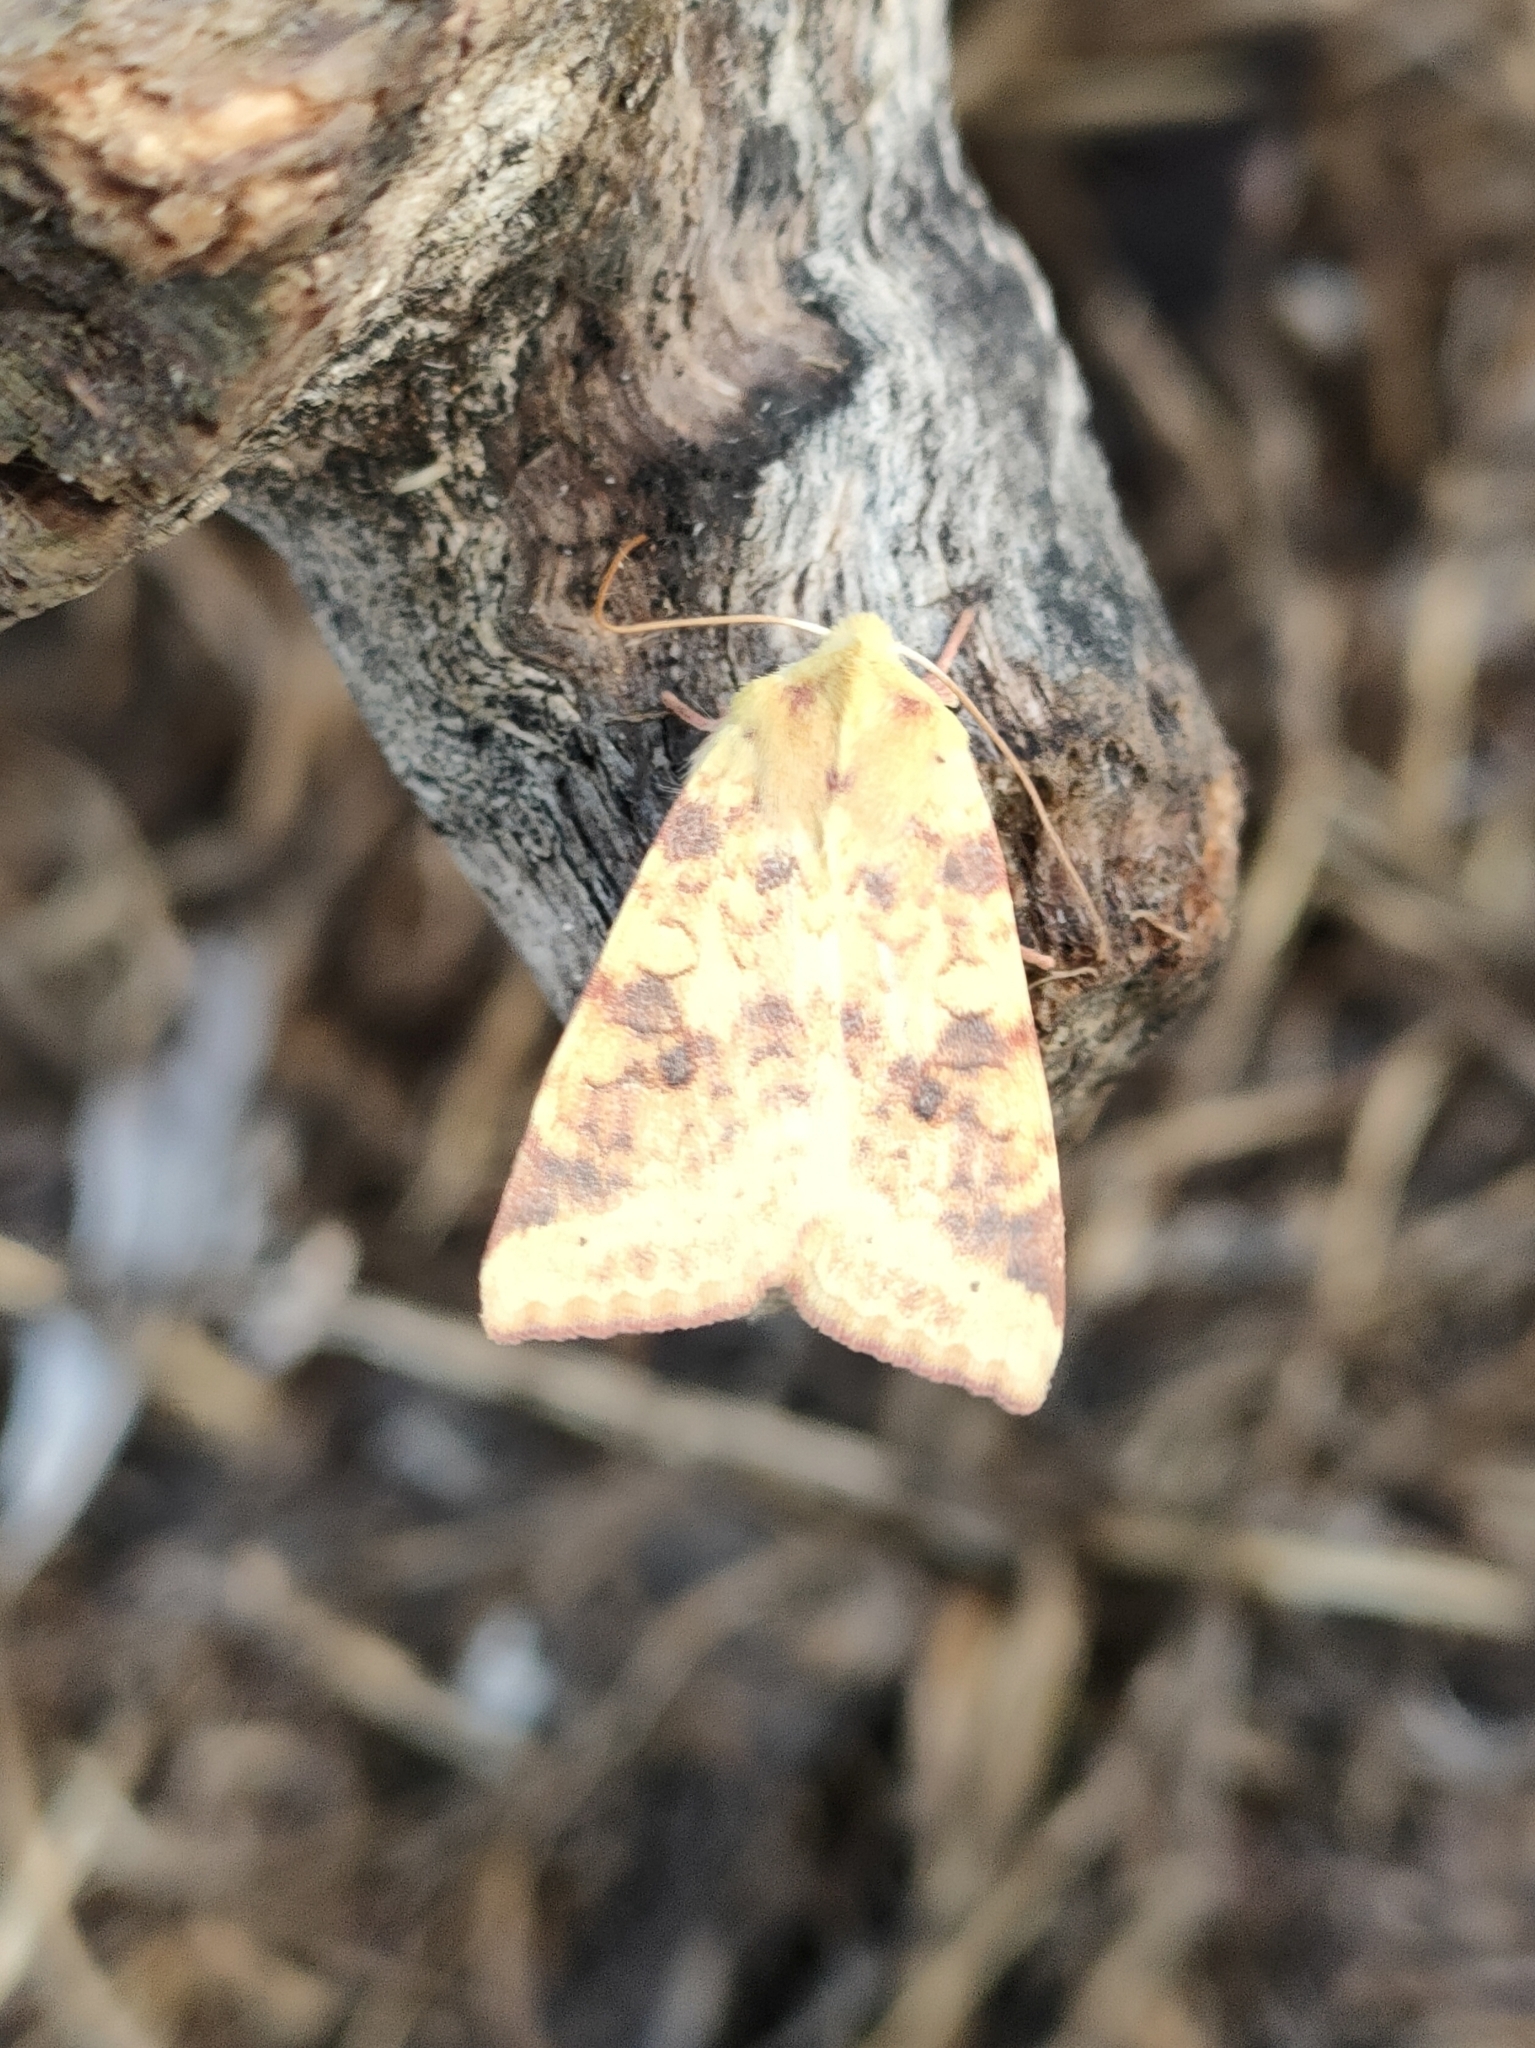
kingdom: Animalia
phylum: Arthropoda
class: Insecta
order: Lepidoptera
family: Noctuidae
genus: Xanthia
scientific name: Xanthia icteritia
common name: The sallow
